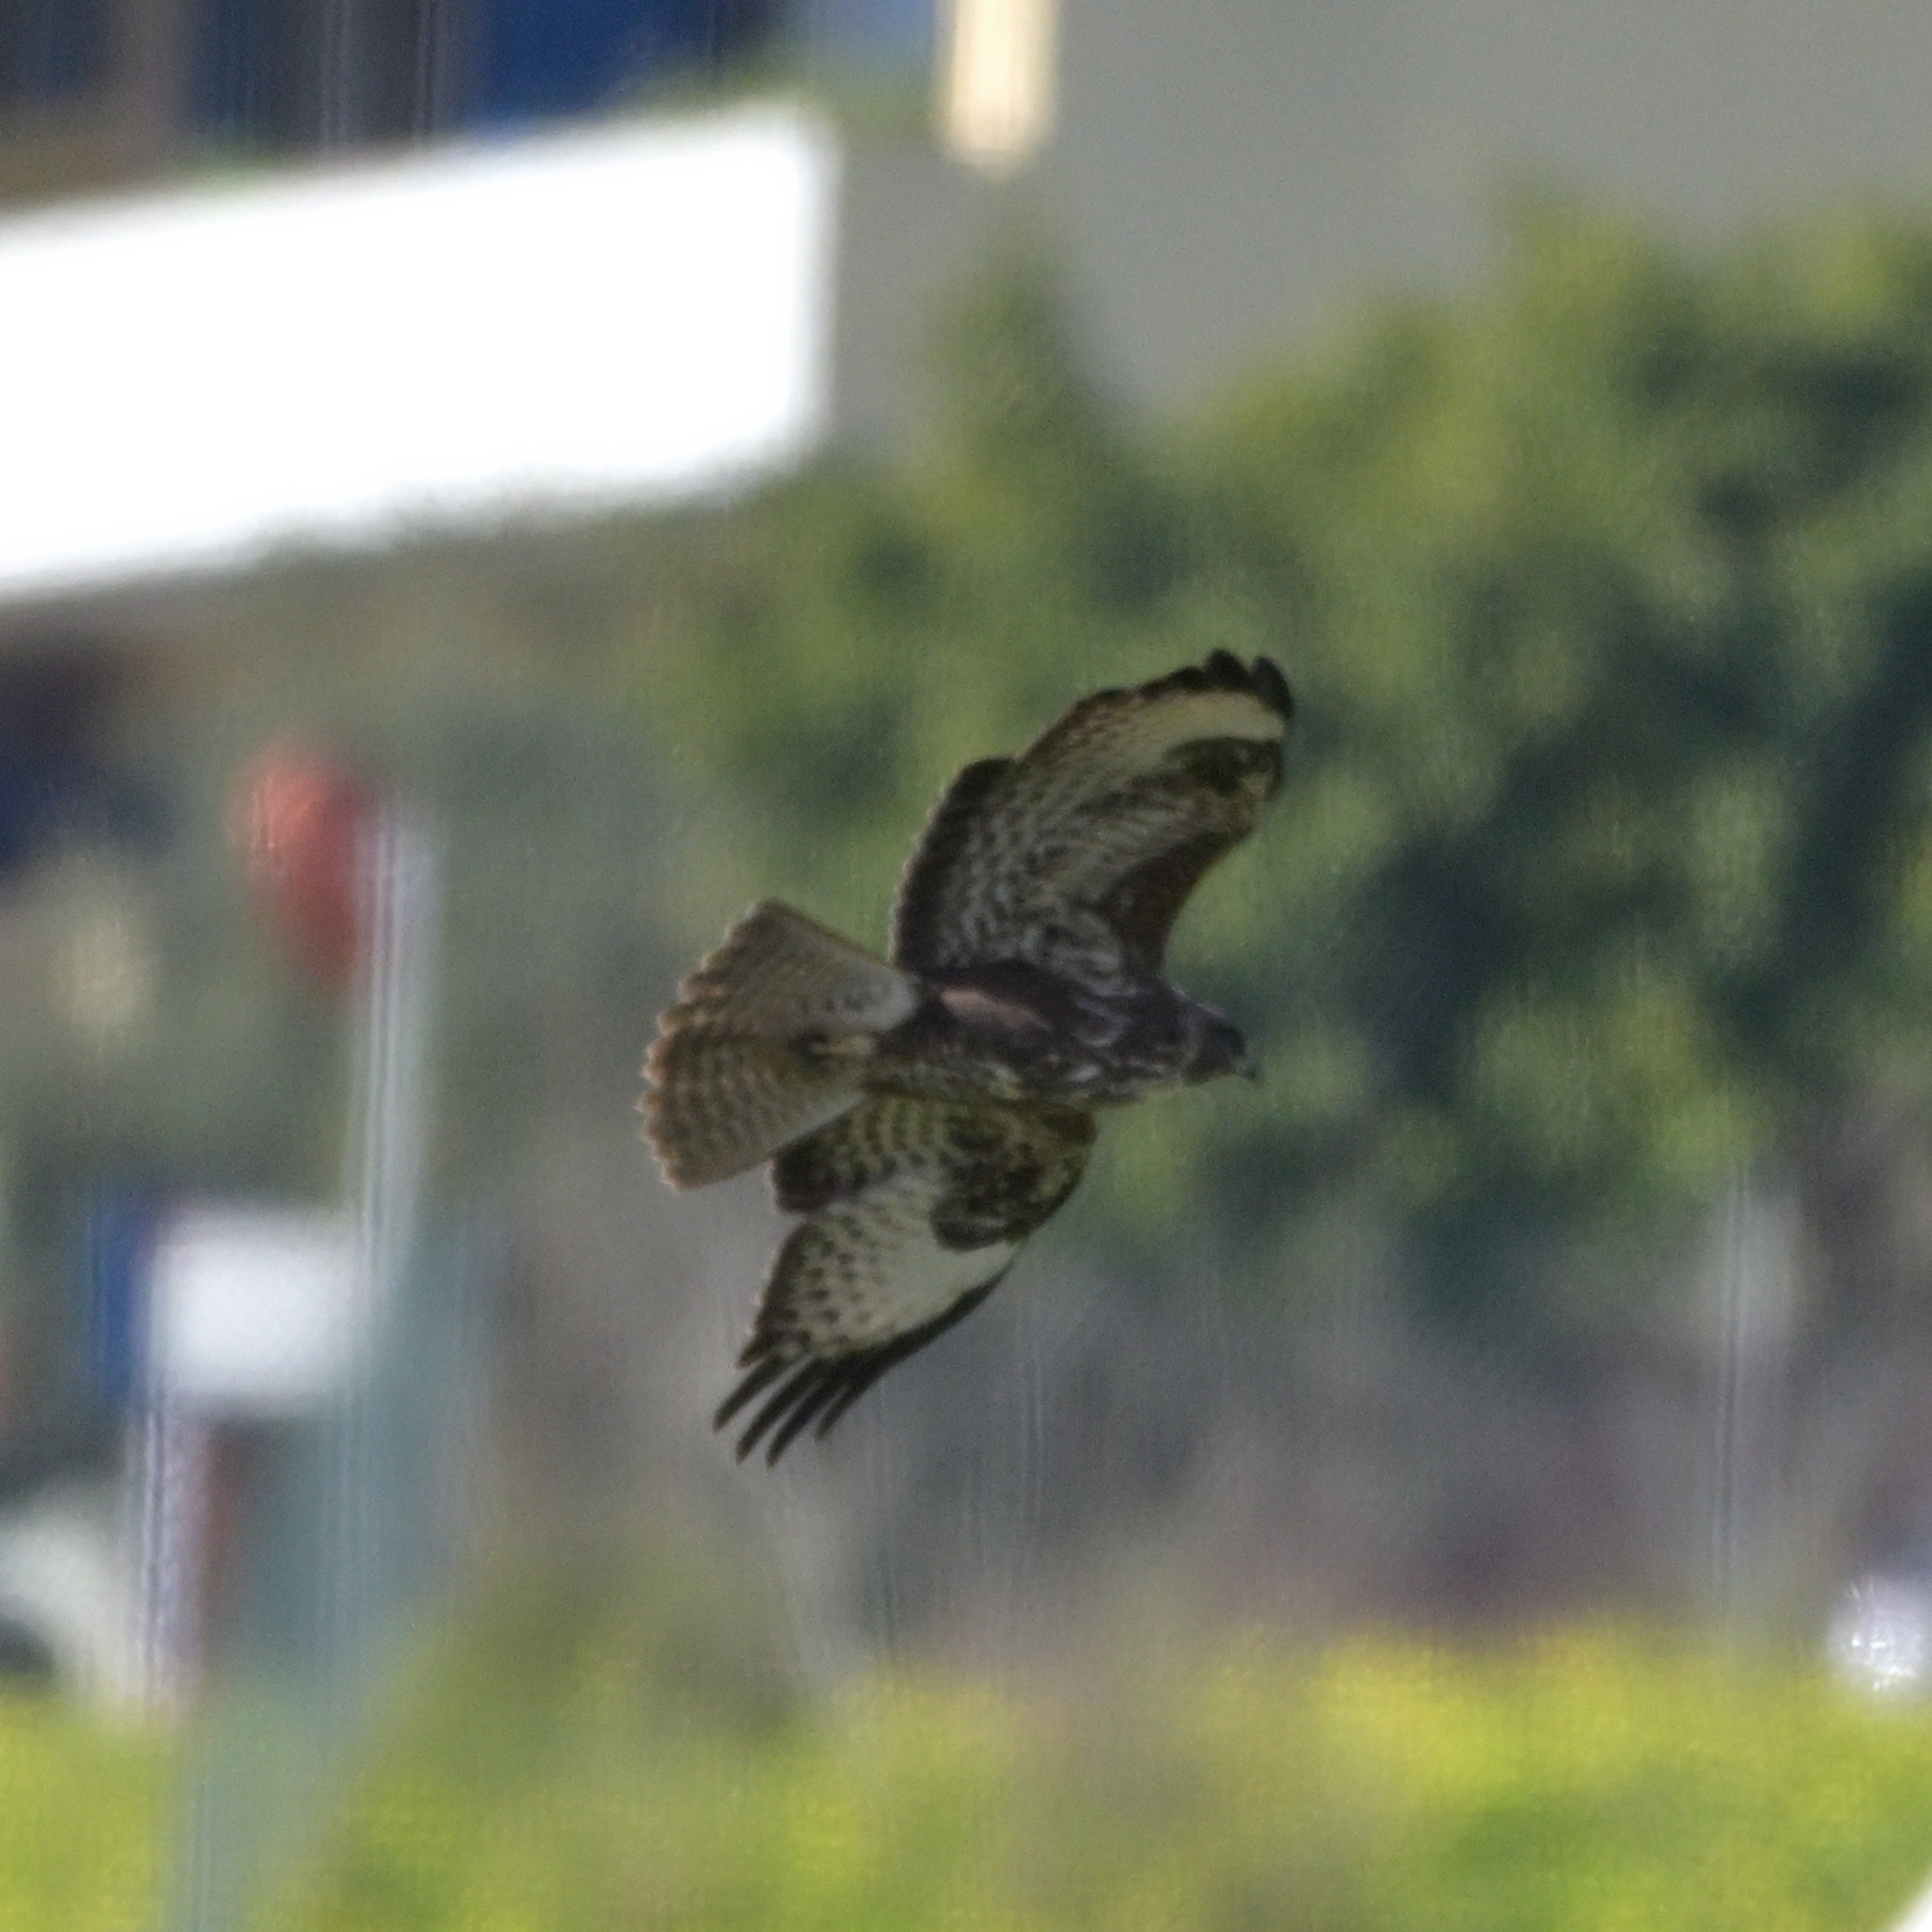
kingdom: Animalia
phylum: Chordata
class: Aves
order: Accipitriformes
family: Accipitridae
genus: Buteo
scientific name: Buteo buteo
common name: Common buzzard
